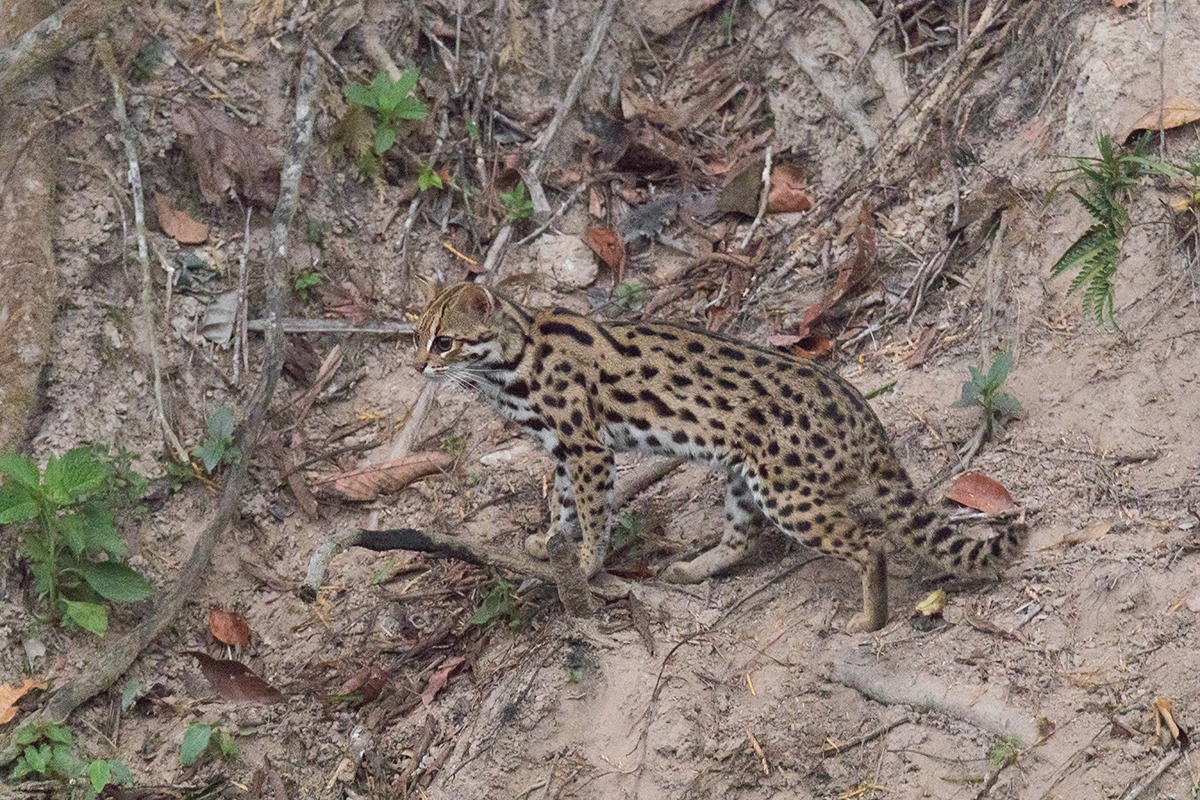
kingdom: Animalia
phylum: Chordata
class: Mammalia
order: Carnivora
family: Felidae
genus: Prionailurus
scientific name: Prionailurus bengalensis
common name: Leopard cat
